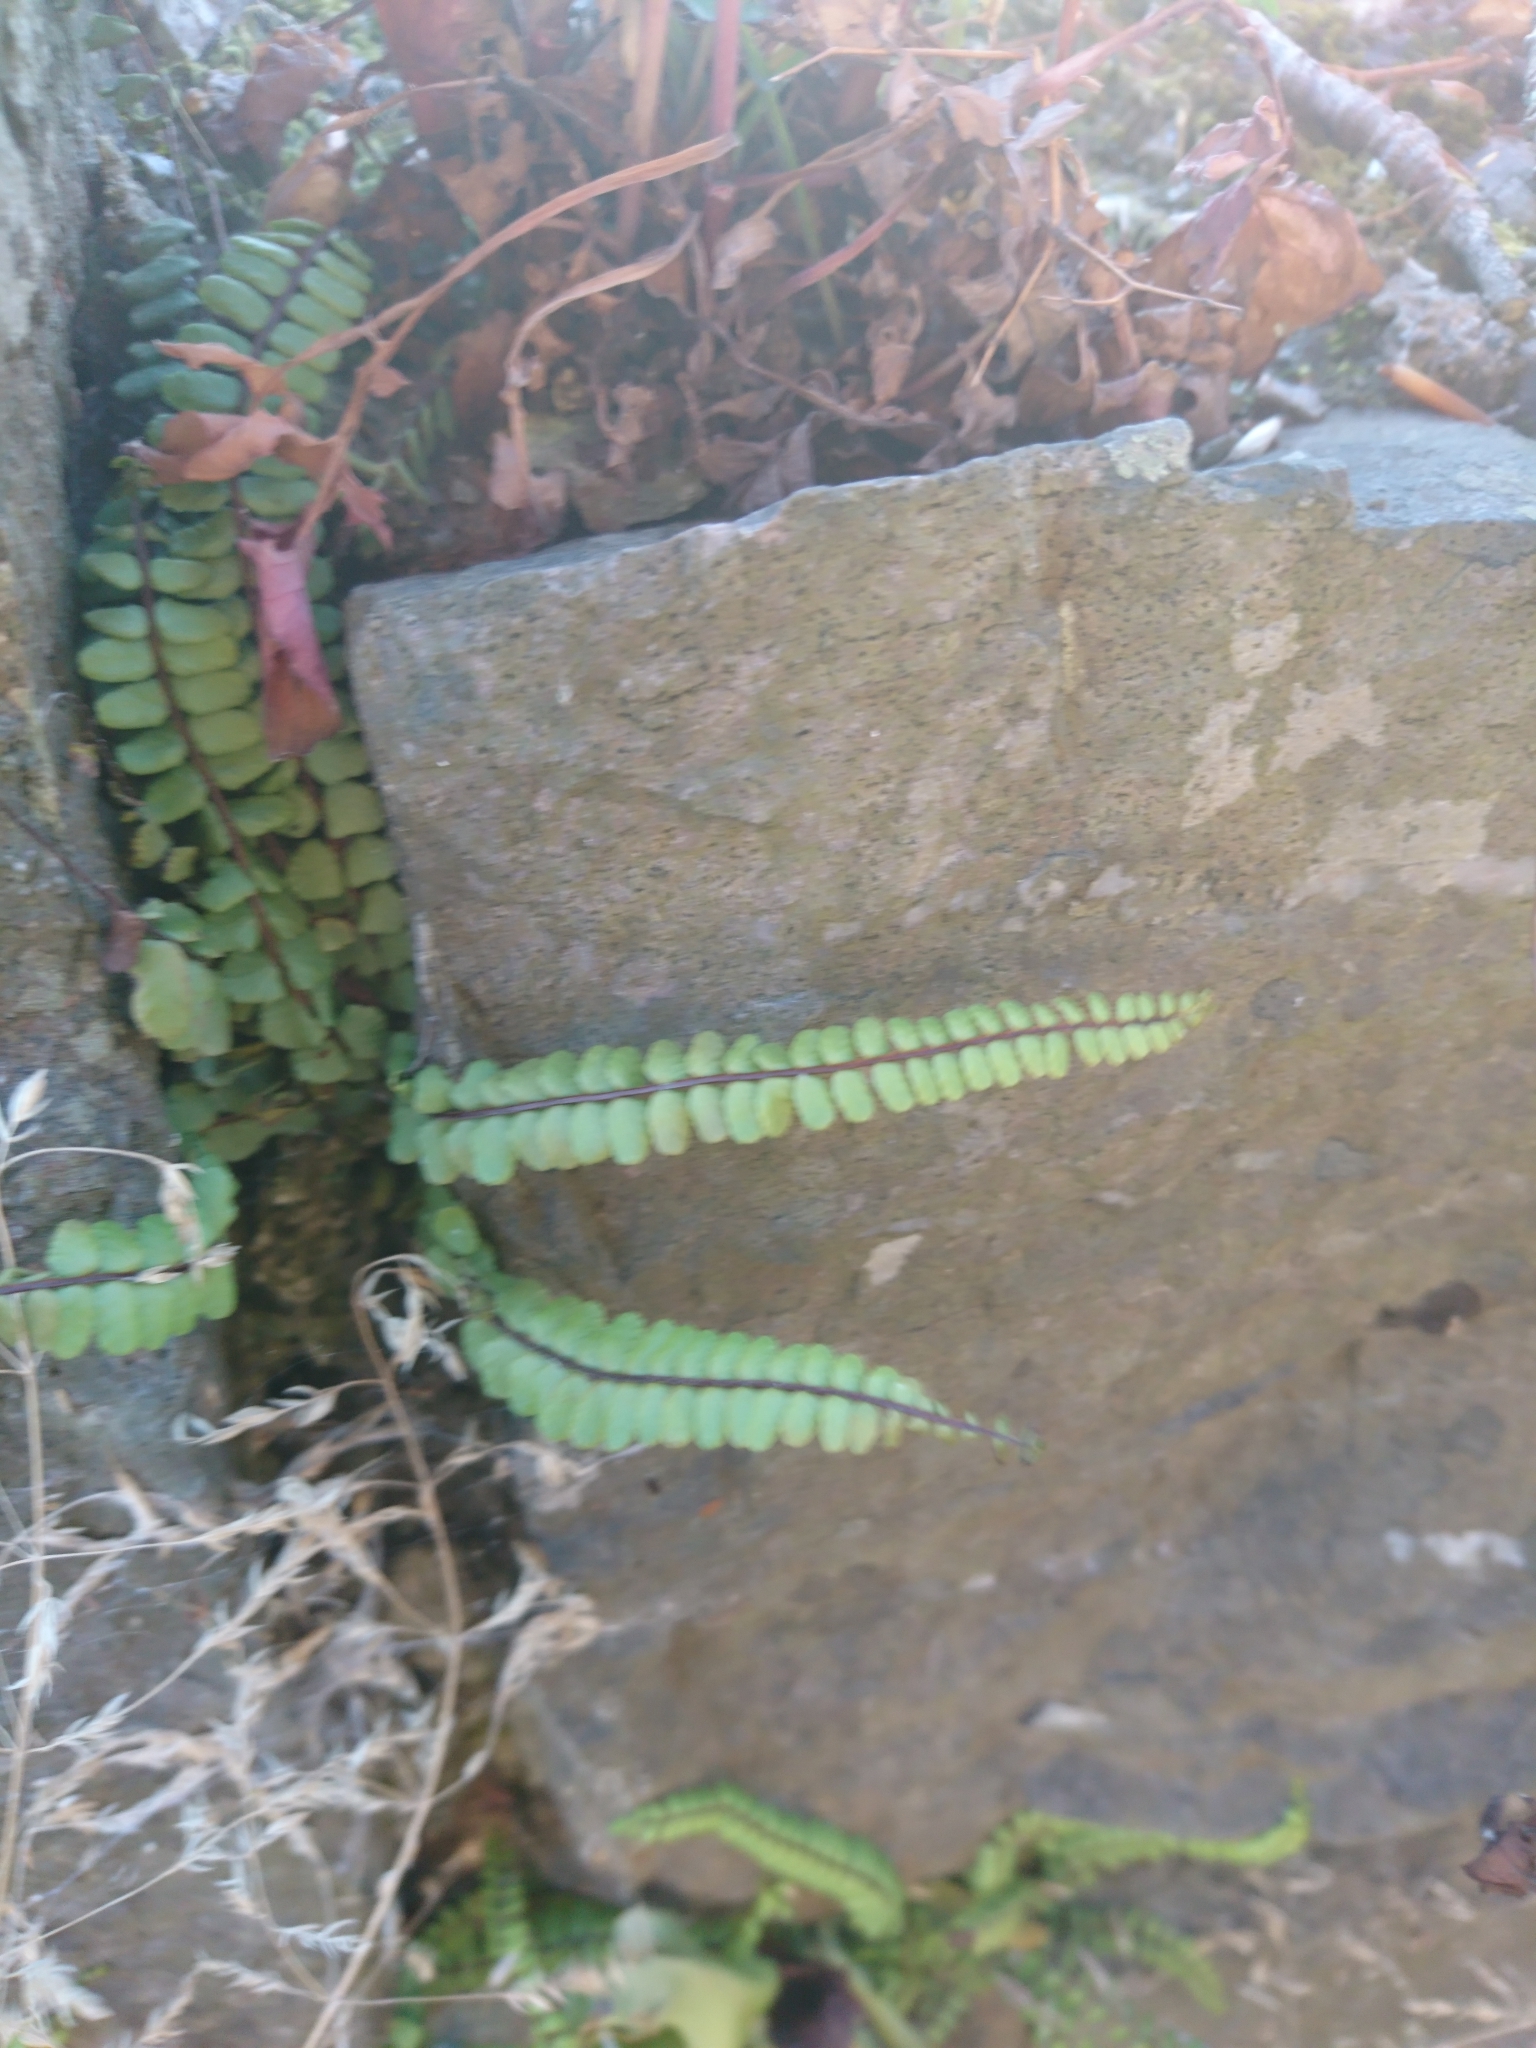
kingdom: Plantae
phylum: Tracheophyta
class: Polypodiopsida
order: Polypodiales
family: Aspleniaceae
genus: Asplenium
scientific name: Asplenium trichomanes
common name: Maidenhair spleenwort
